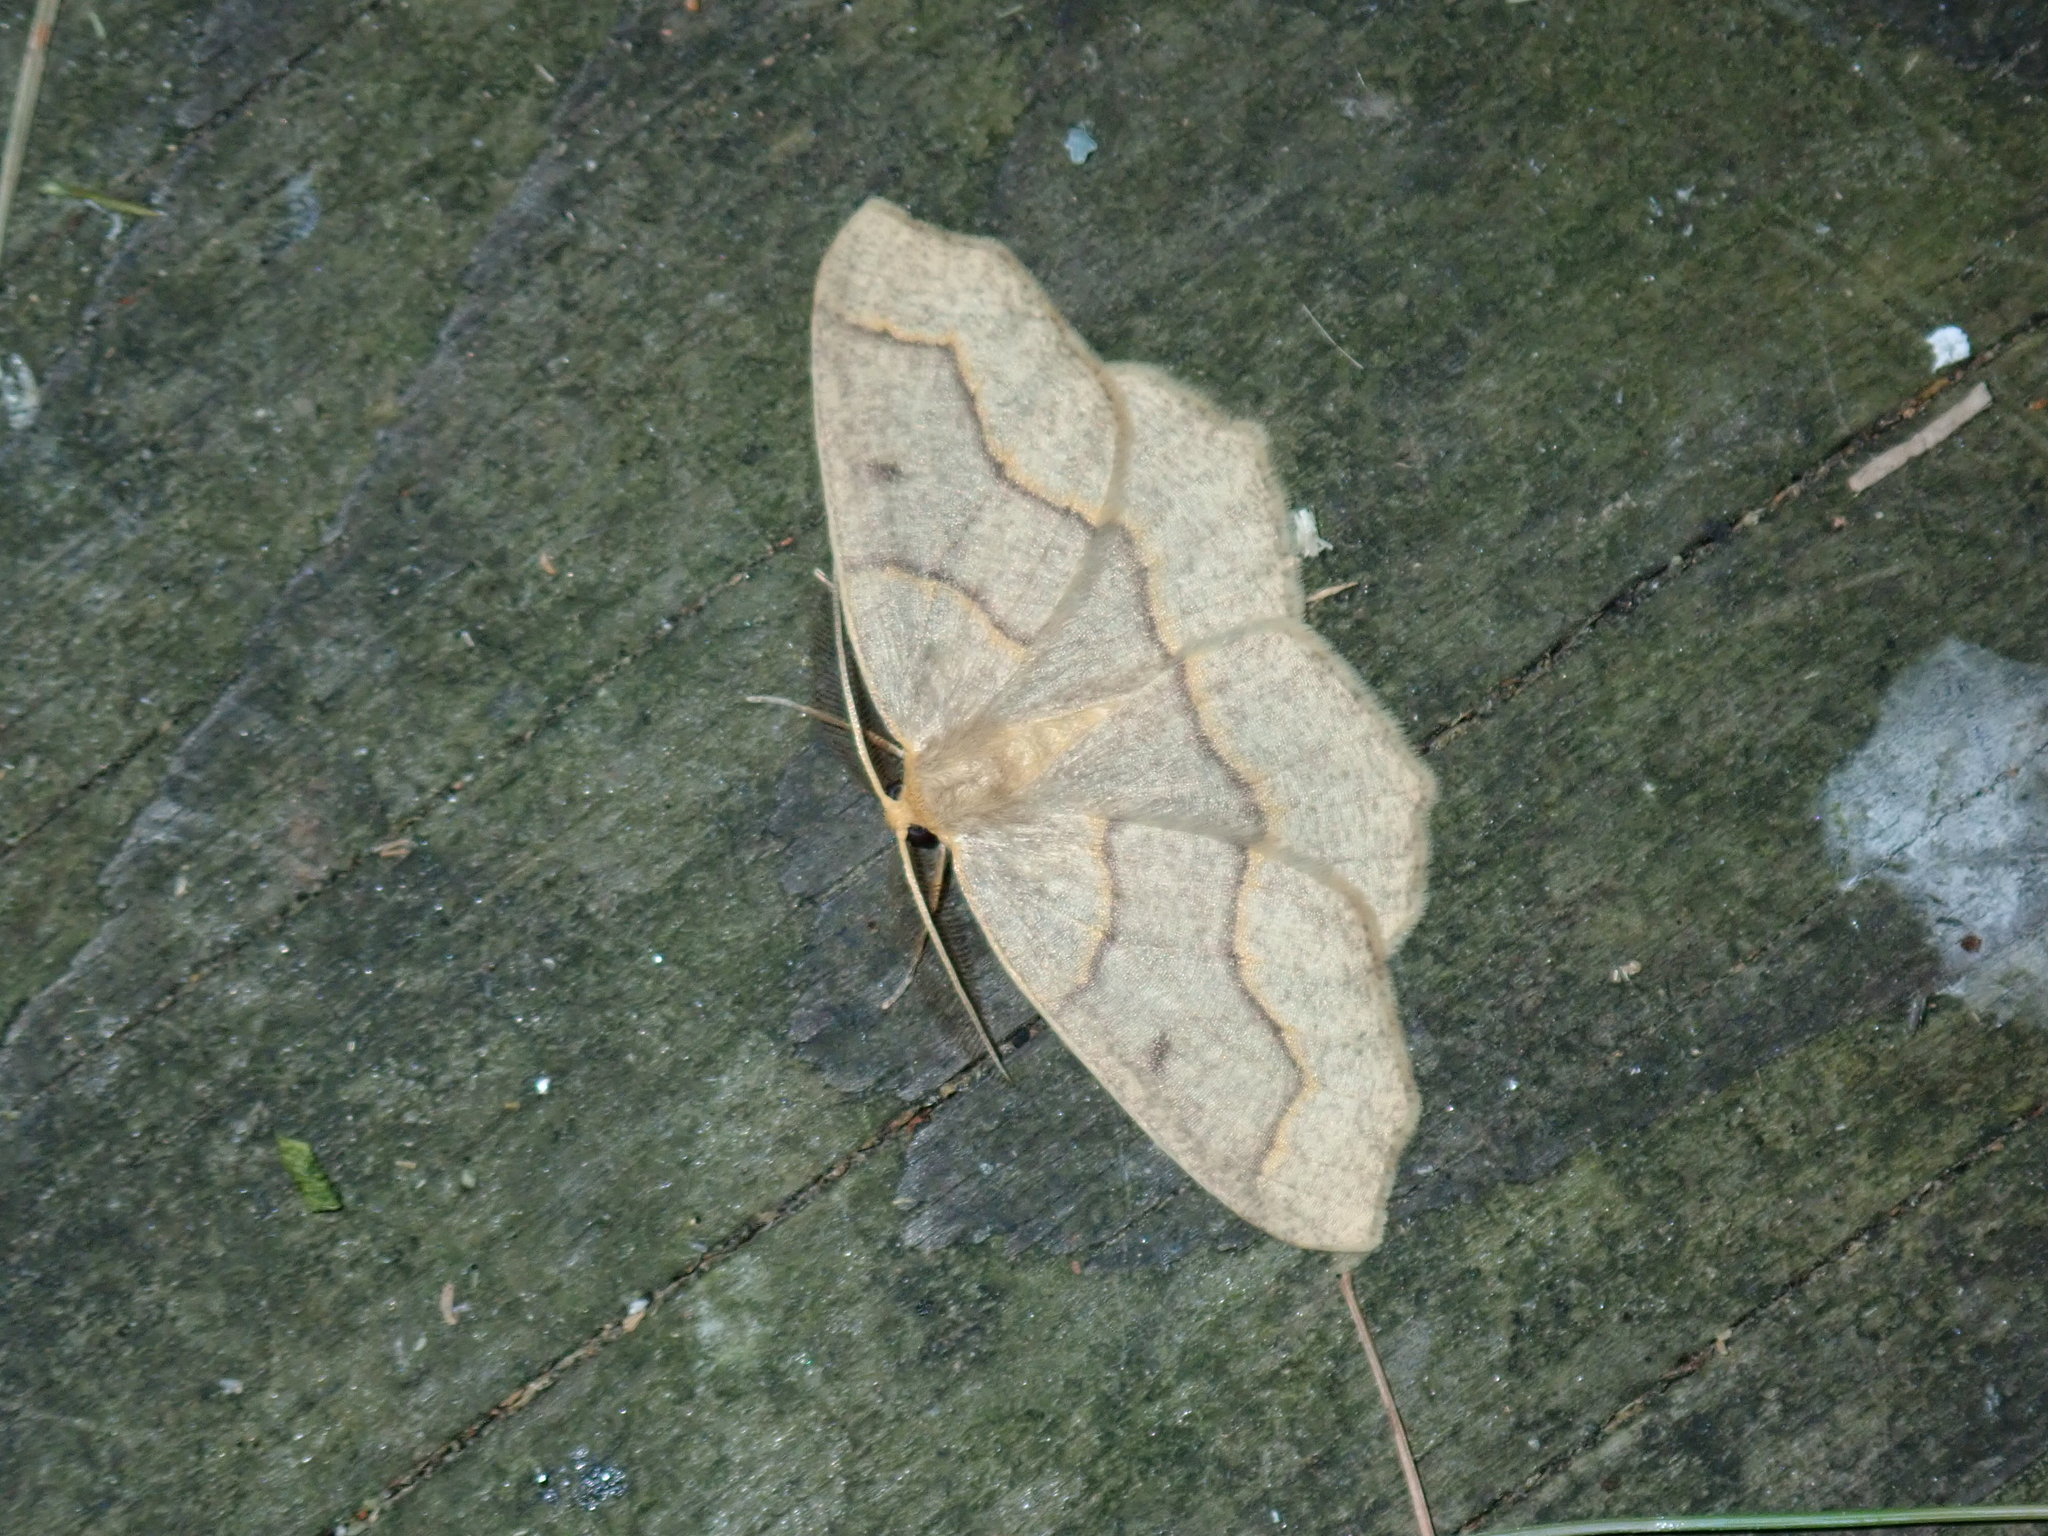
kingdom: Animalia
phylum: Arthropoda
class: Insecta
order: Lepidoptera
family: Geometridae
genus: Lambdina
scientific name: Lambdina fiscellaria
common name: Hemlock looper
